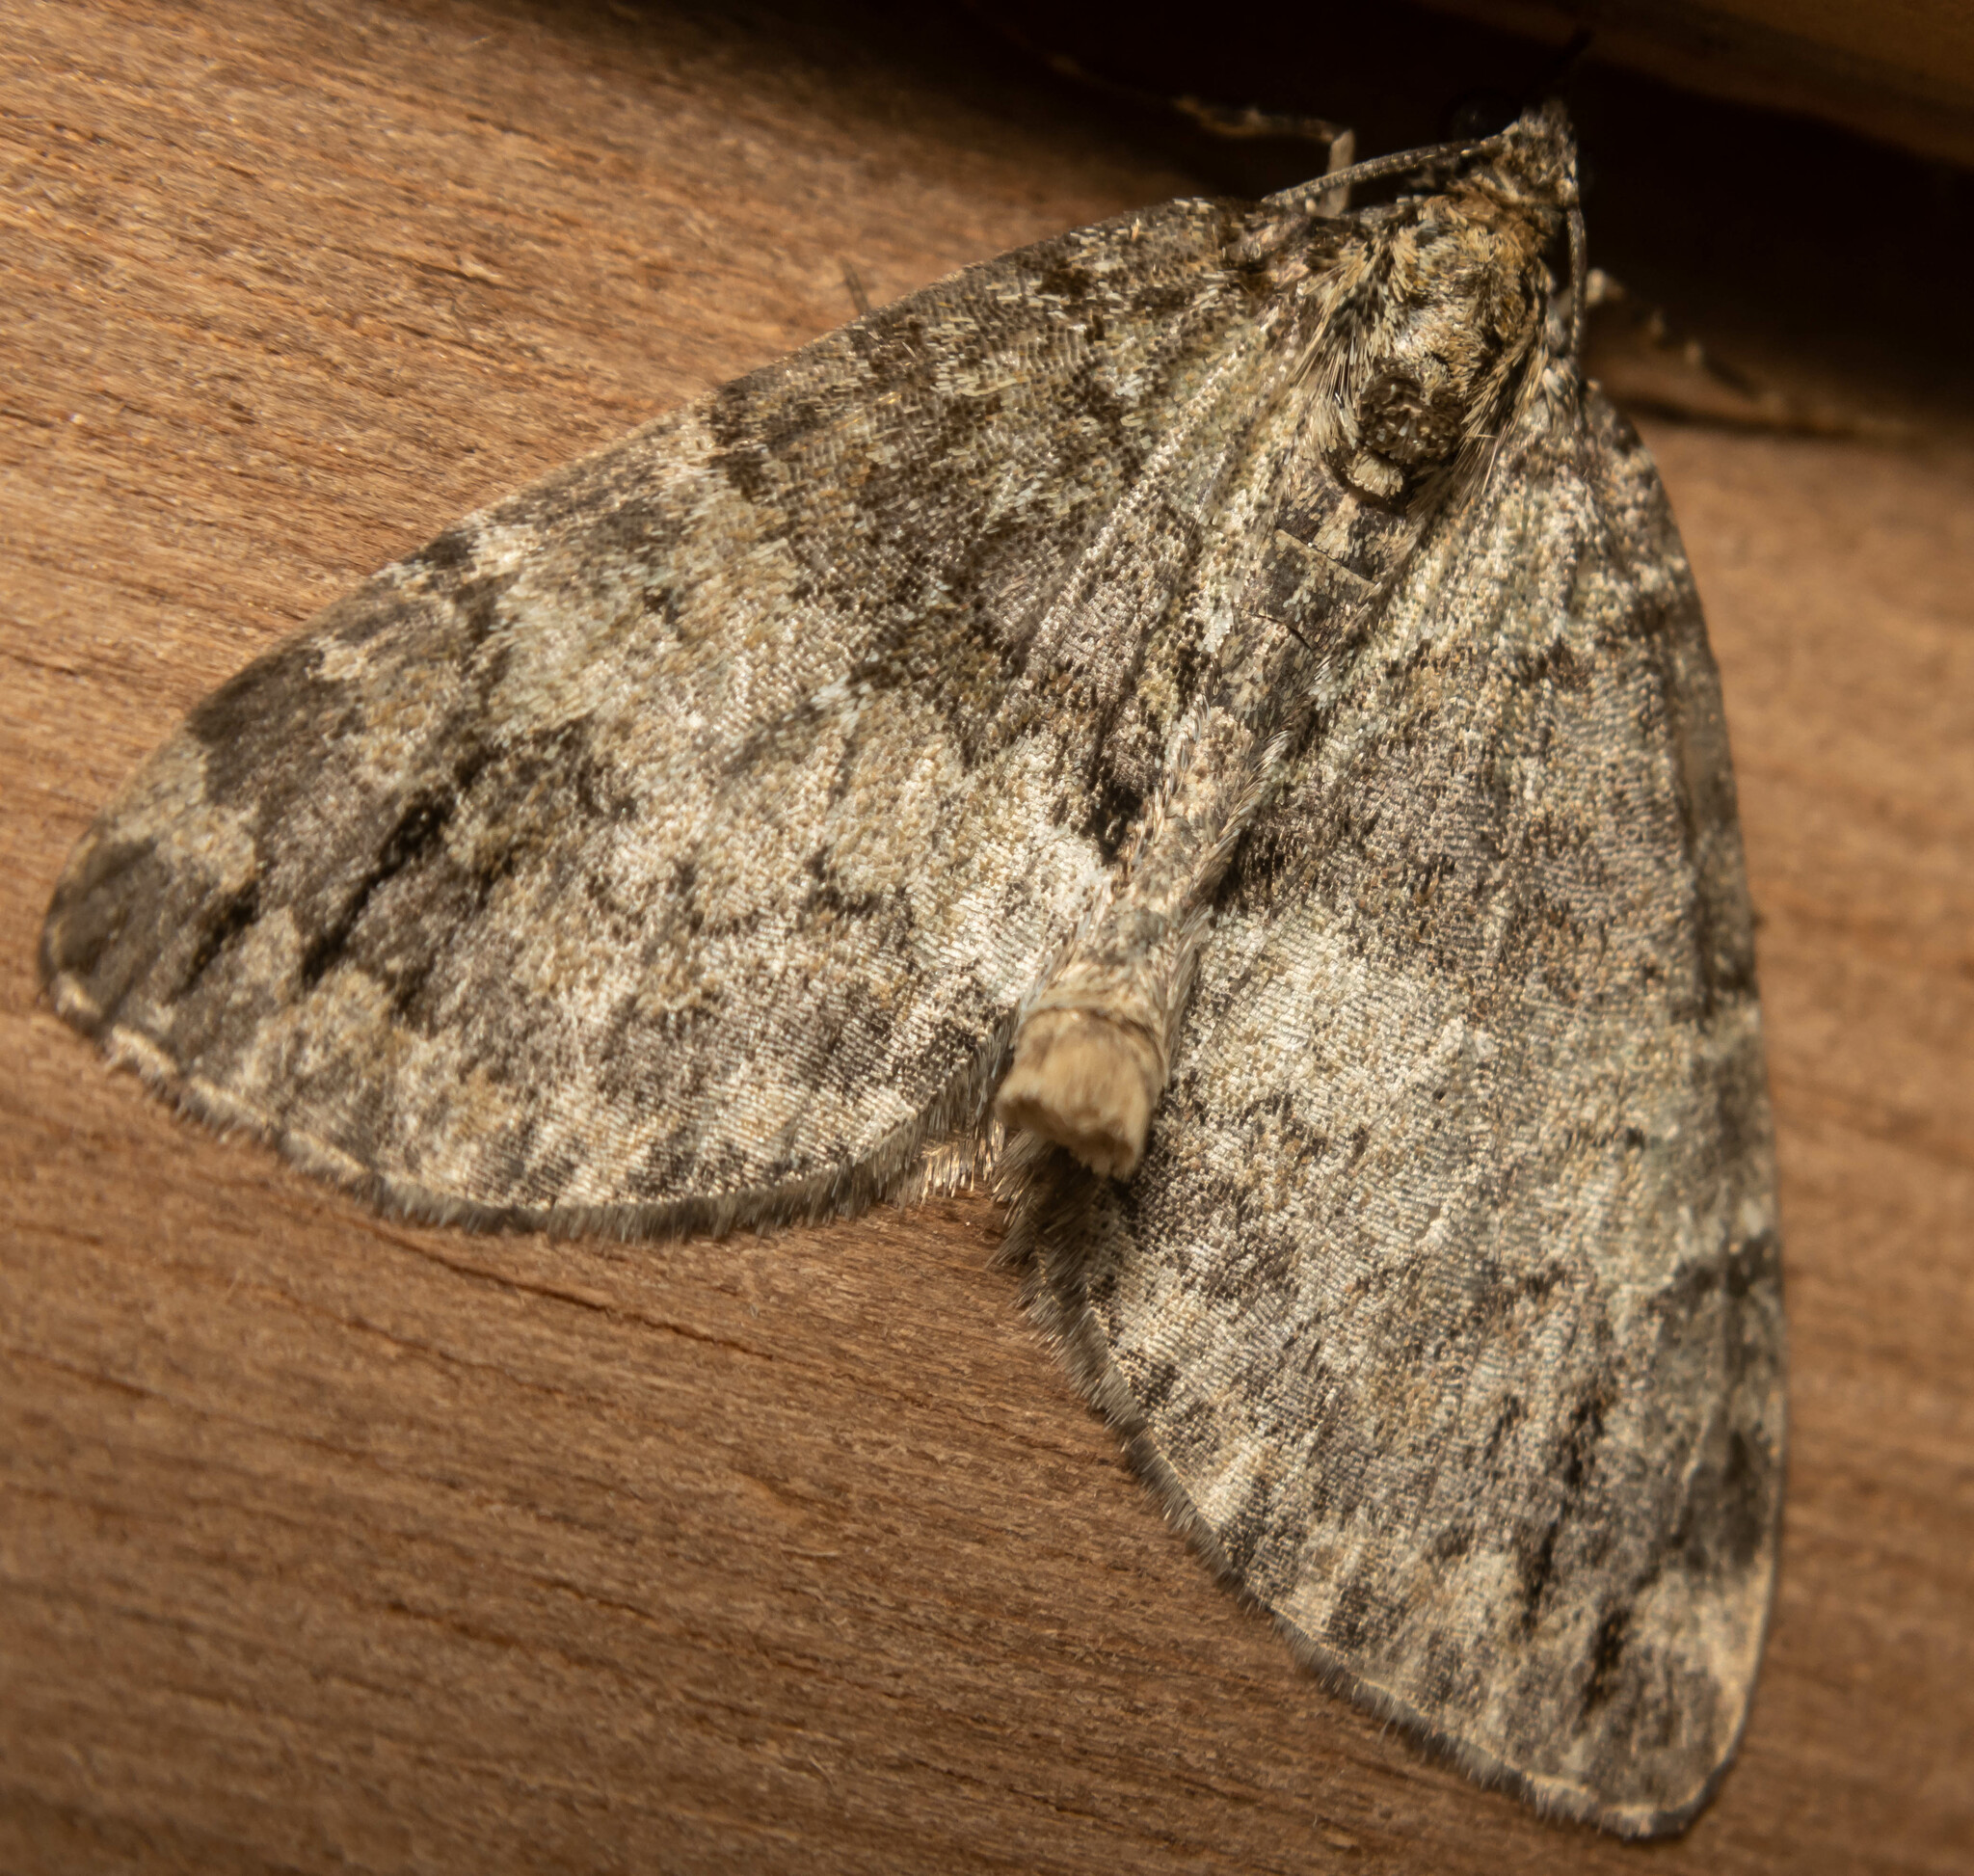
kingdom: Animalia
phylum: Arthropoda
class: Insecta
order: Lepidoptera
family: Geometridae
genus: Hydriomena
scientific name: Hydriomena impluviata
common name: May highflyer
